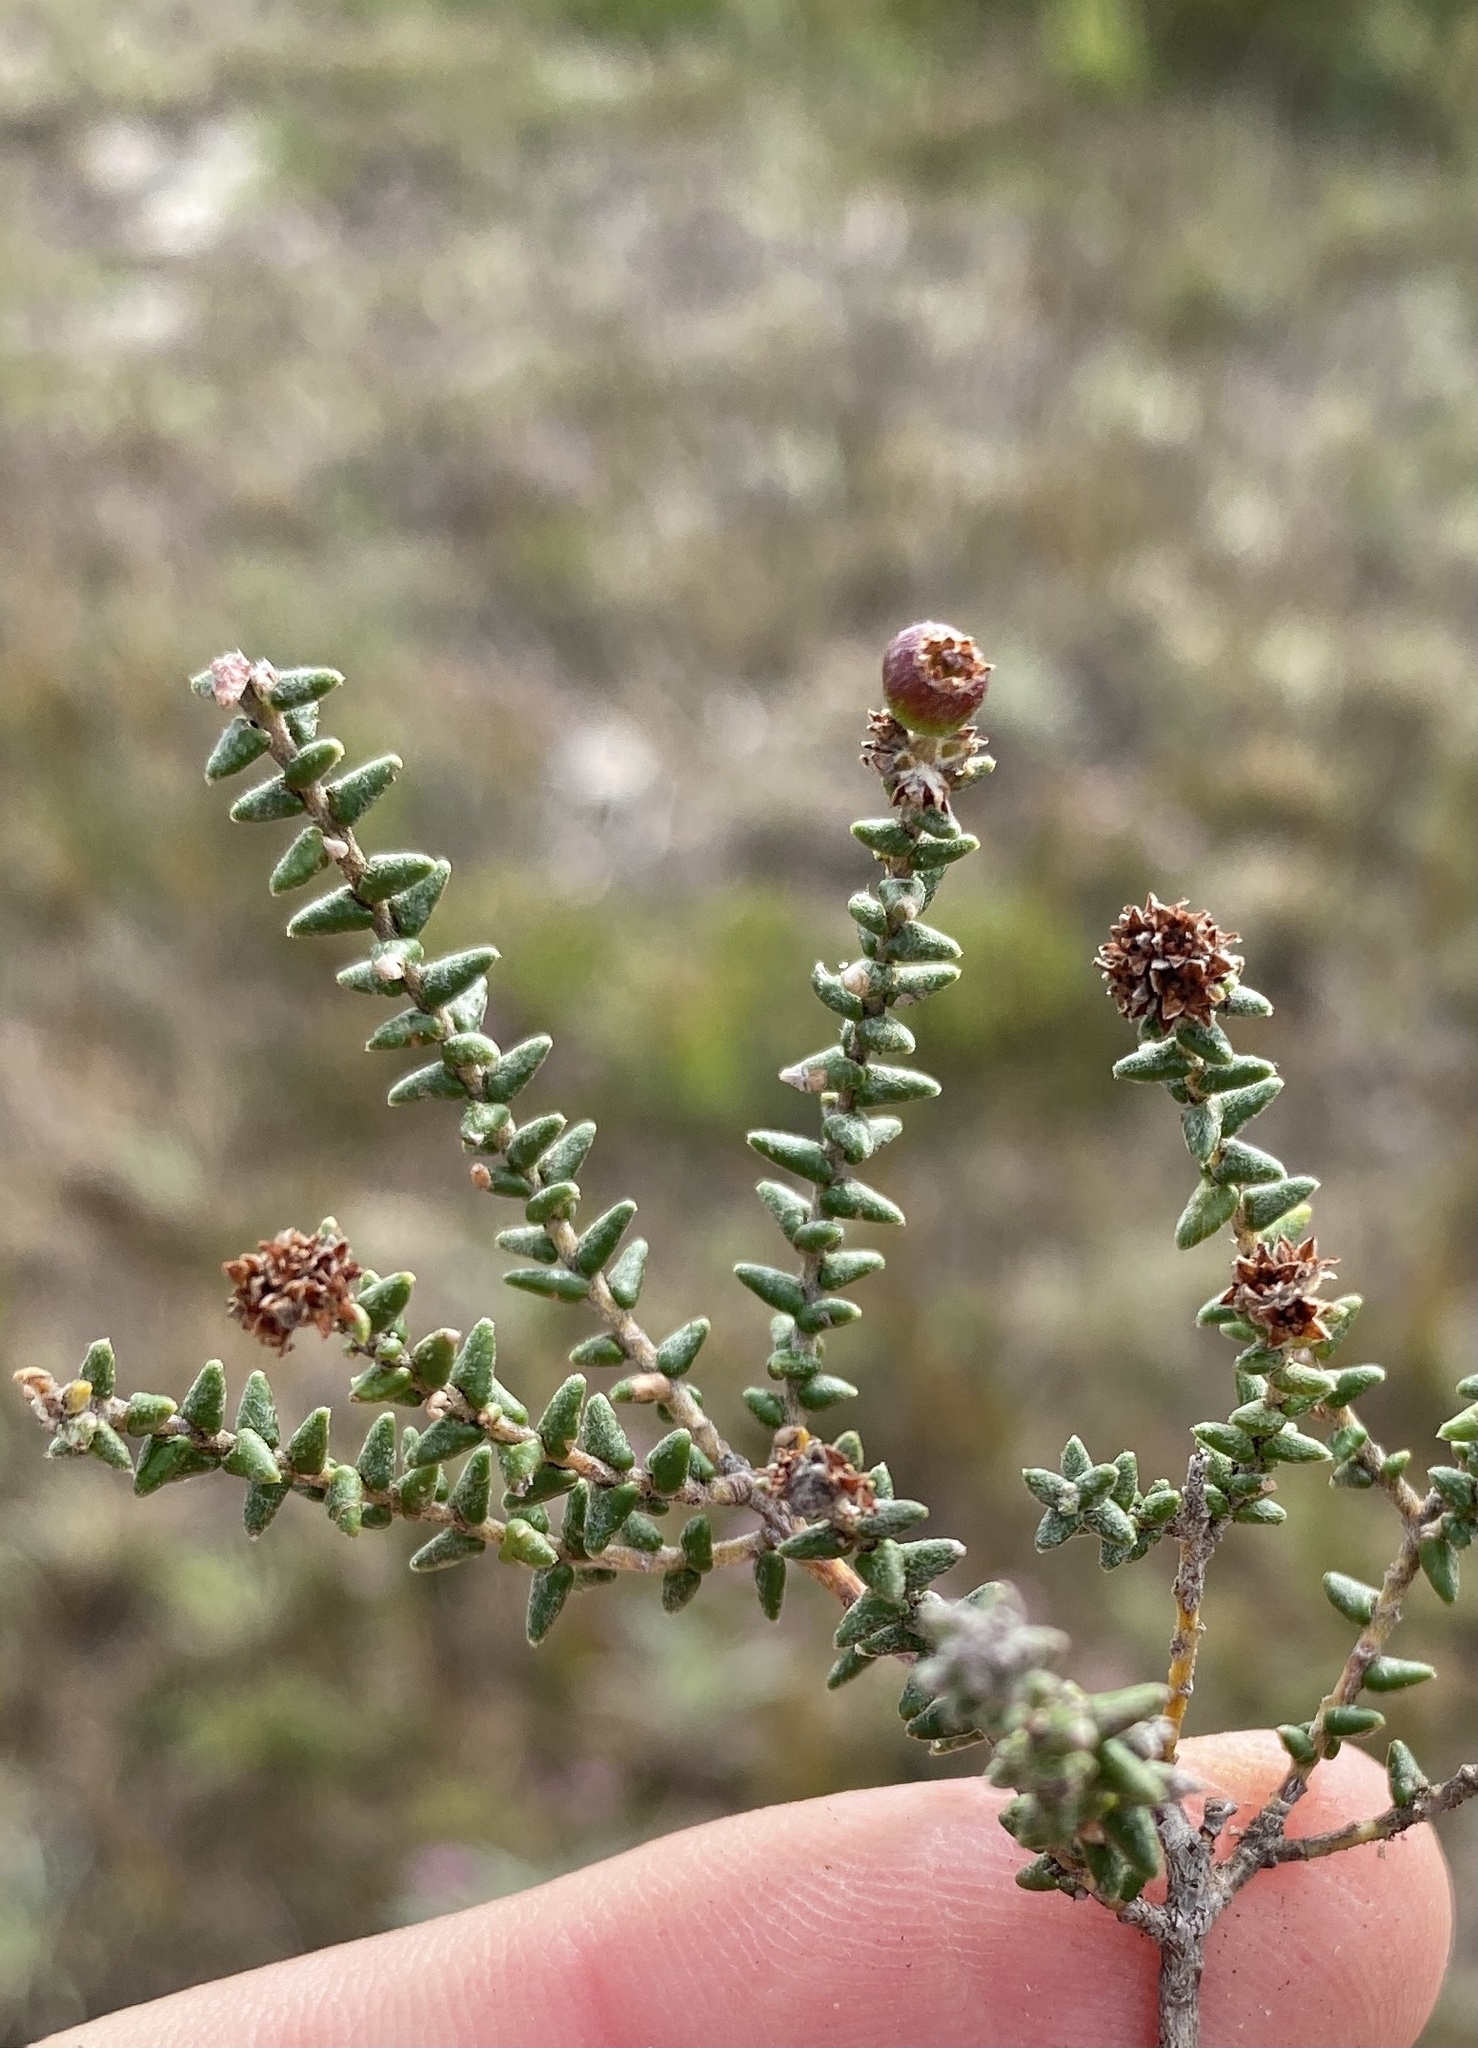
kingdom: Plantae
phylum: Tracheophyta
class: Magnoliopsida
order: Rosales
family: Rhamnaceae
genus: Phylica
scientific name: Phylica incurvata
